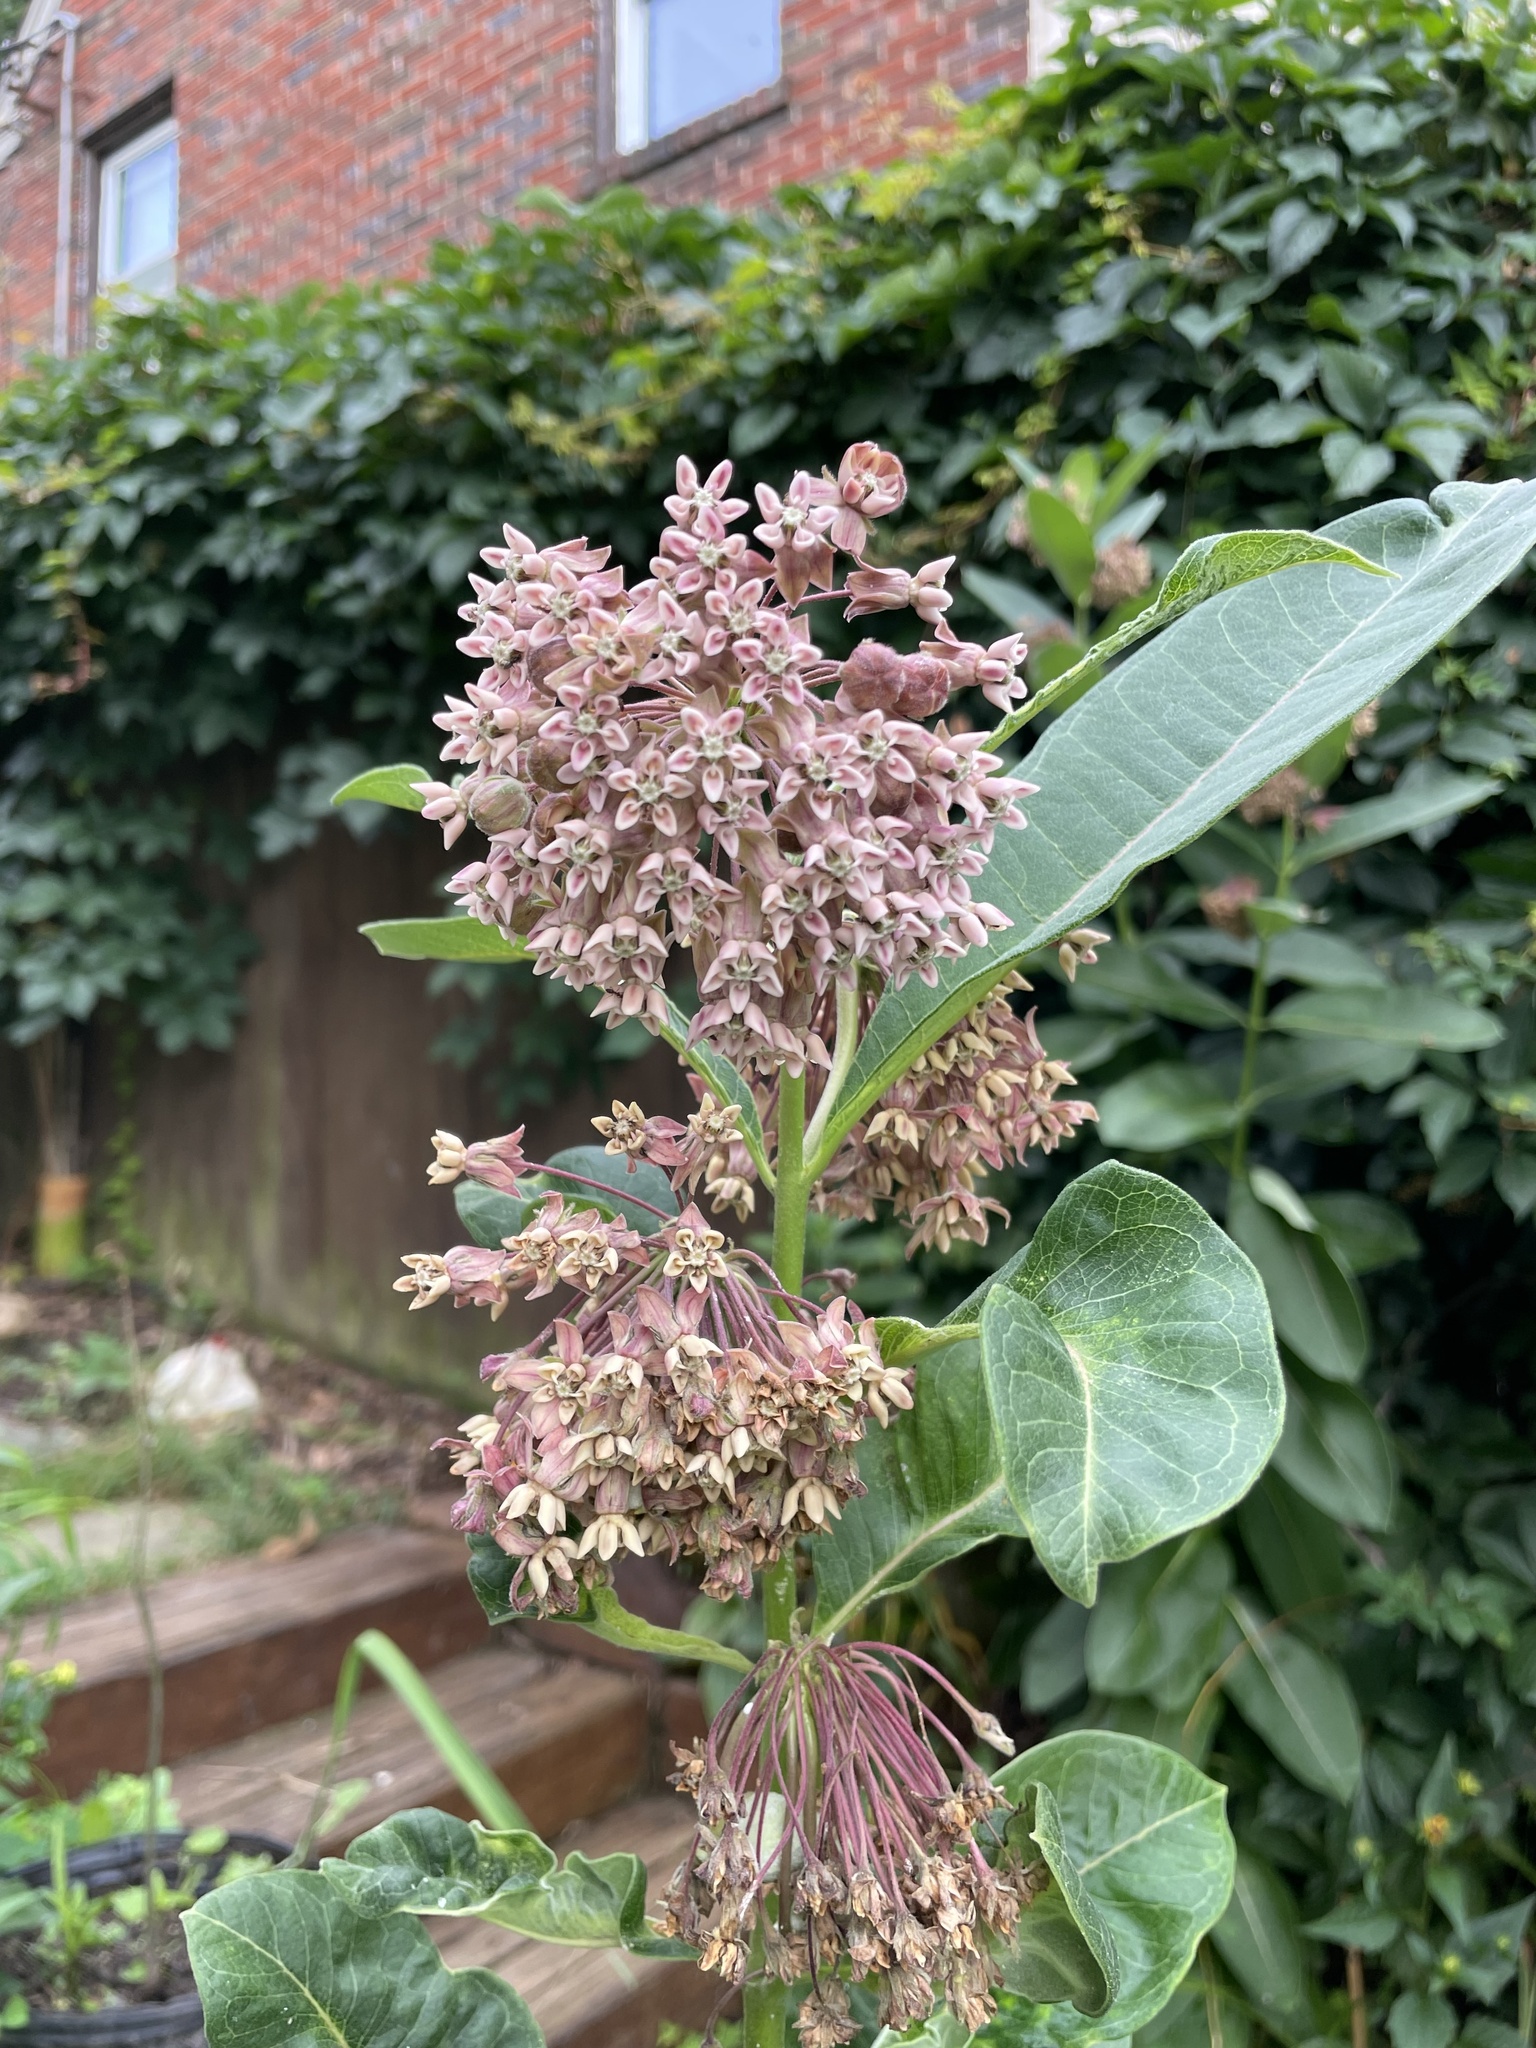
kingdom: Plantae
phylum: Tracheophyta
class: Magnoliopsida
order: Gentianales
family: Apocynaceae
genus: Asclepias
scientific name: Asclepias syriaca
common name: Common milkweed
